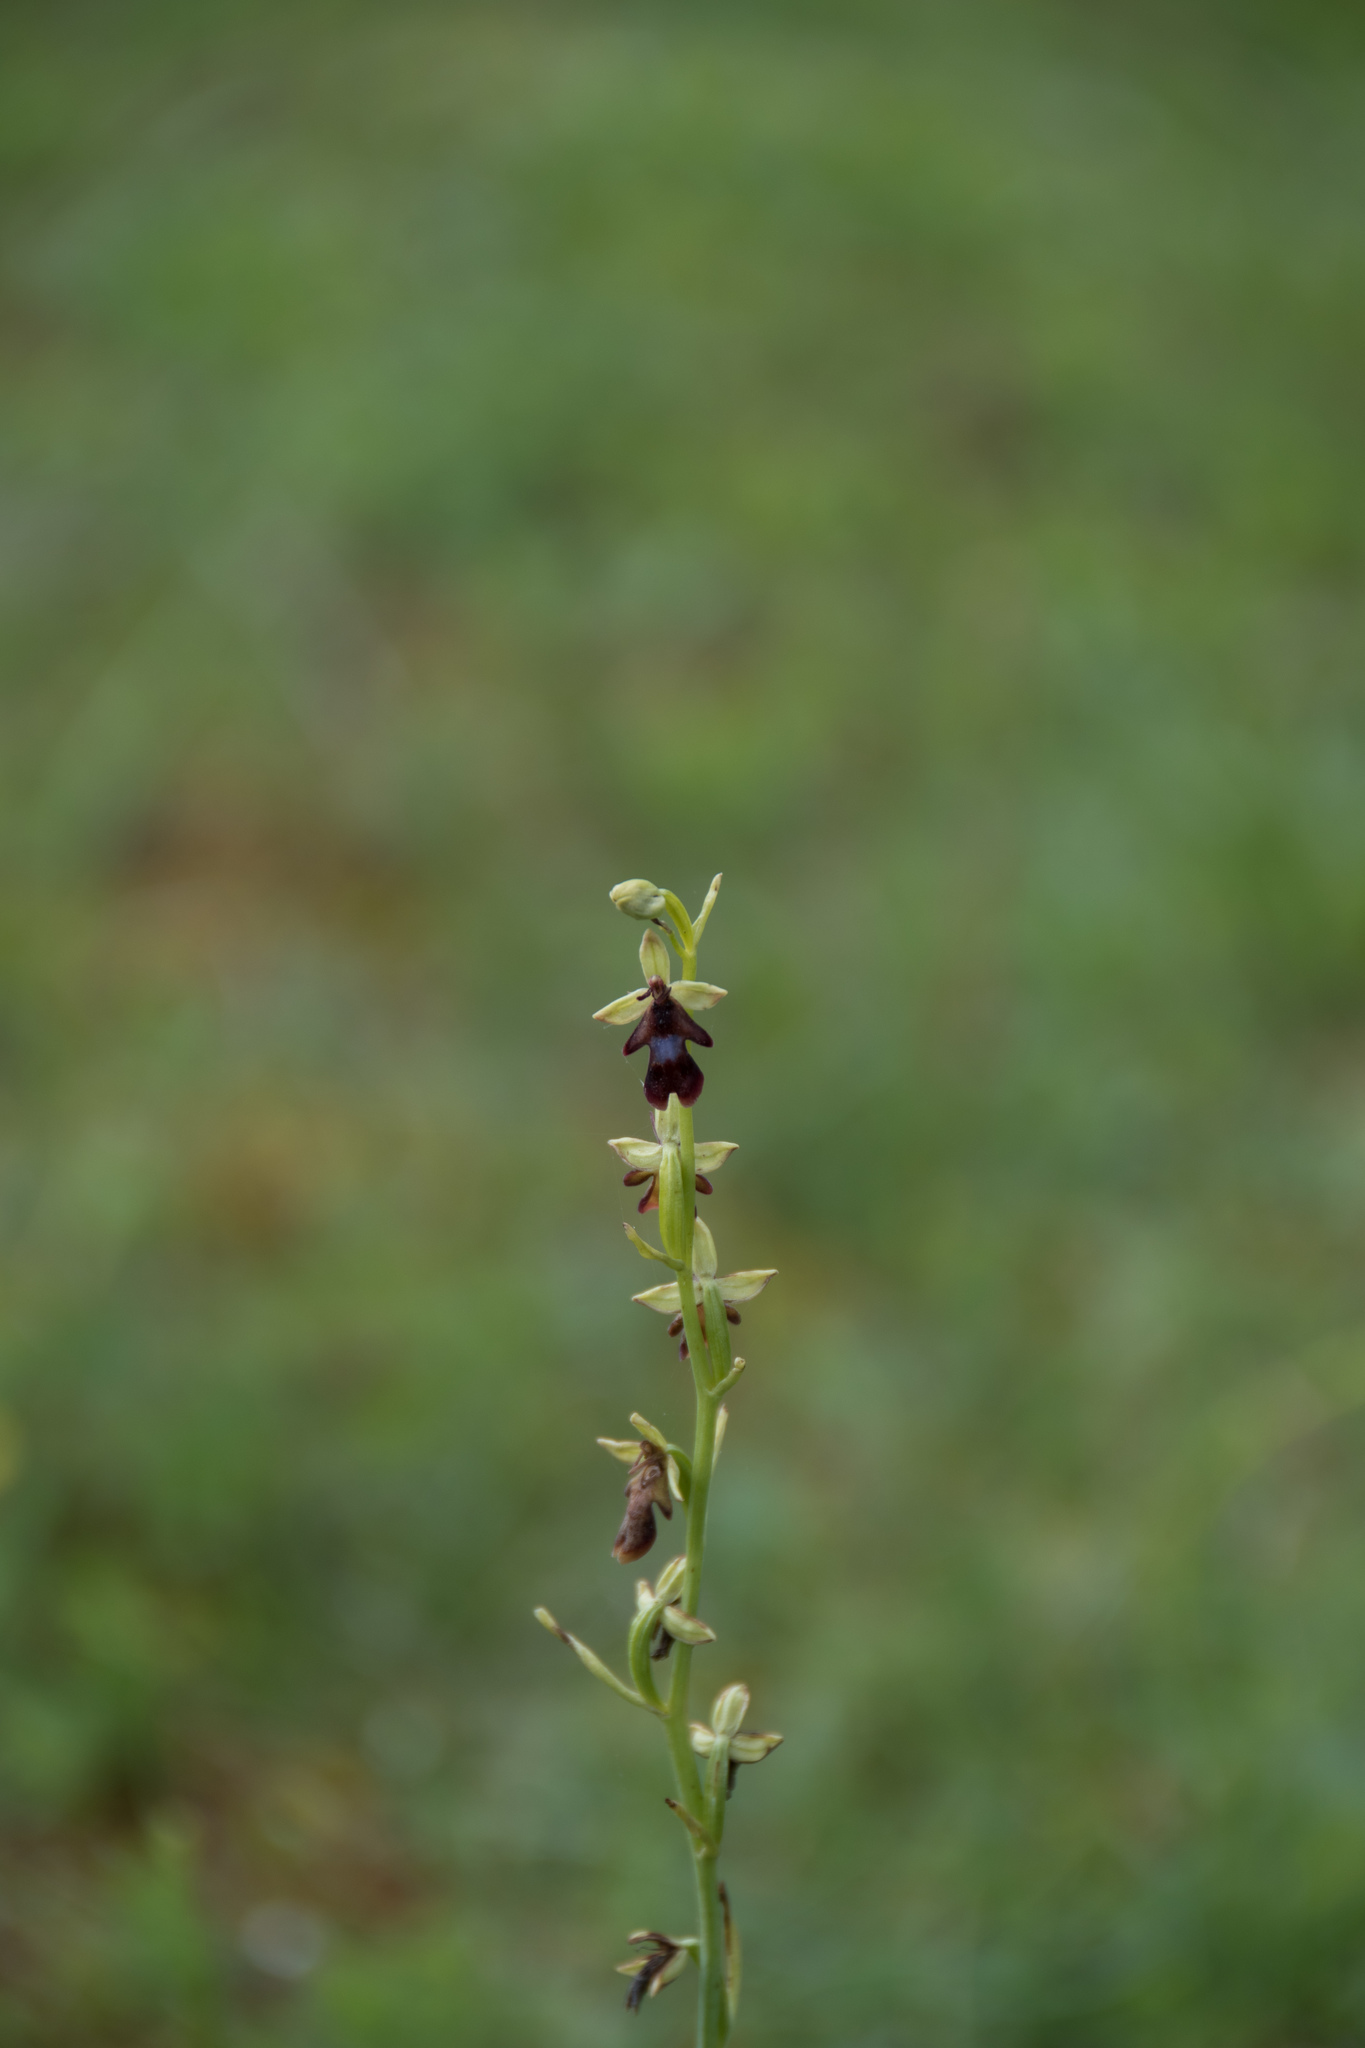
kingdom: Plantae
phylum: Tracheophyta
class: Liliopsida
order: Asparagales
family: Orchidaceae
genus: Ophrys
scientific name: Ophrys insectifera
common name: Fly orchid
